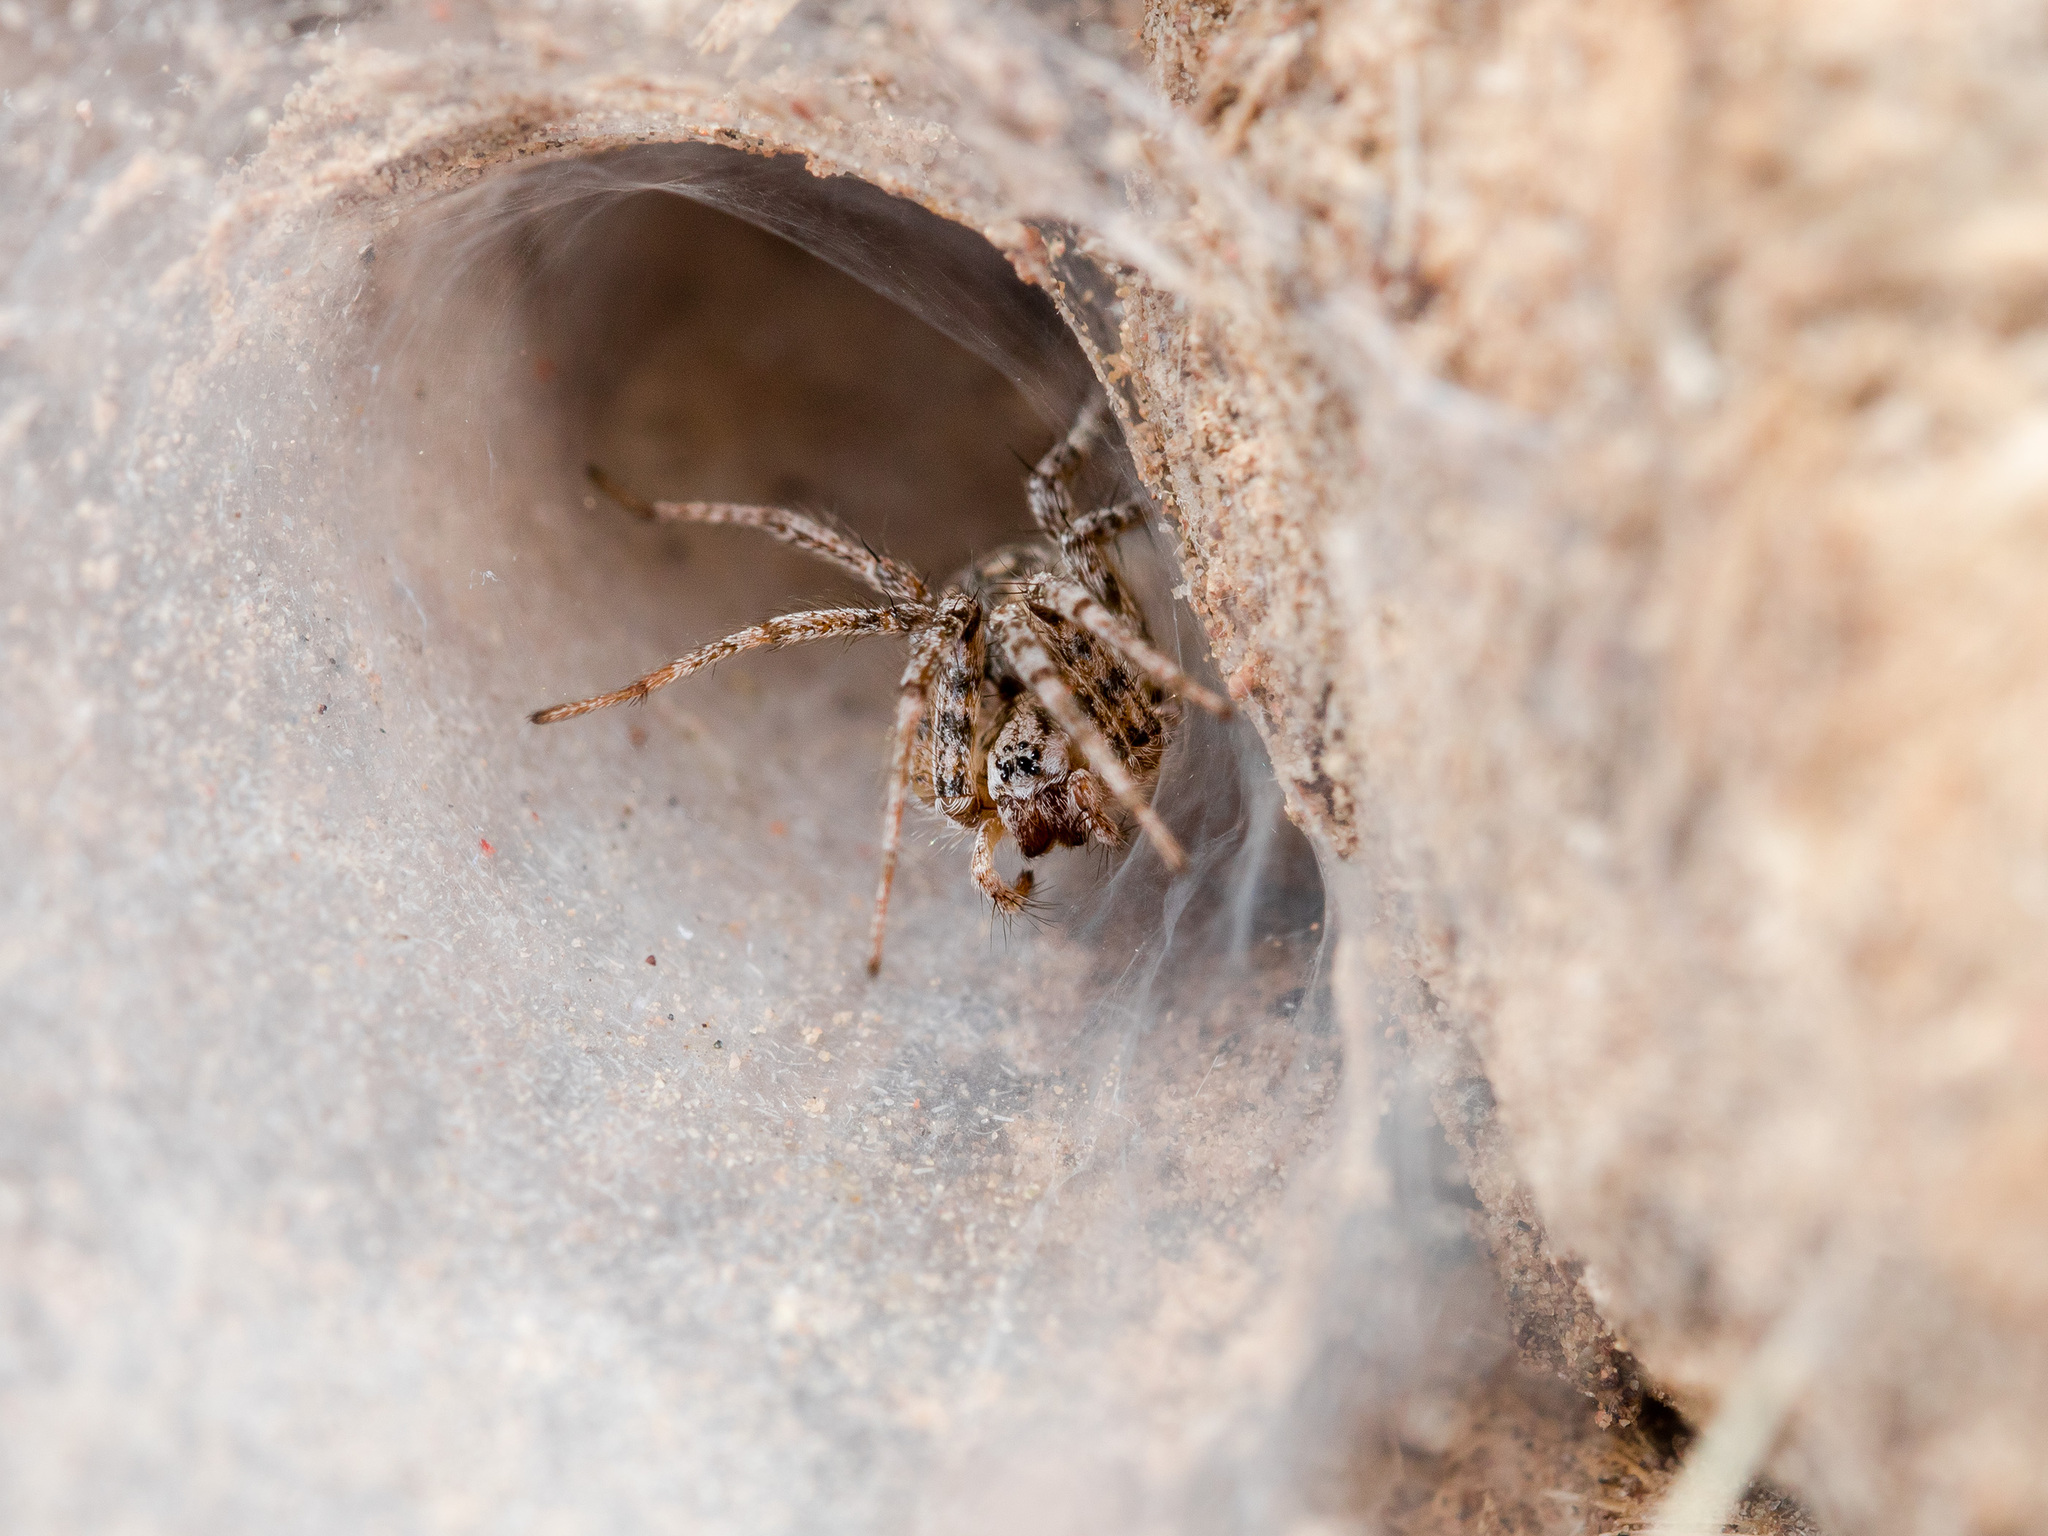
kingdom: Animalia
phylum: Arthropoda
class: Arachnida
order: Araneae
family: Agelenidae
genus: Benoitia
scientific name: Benoitia tadzhika
